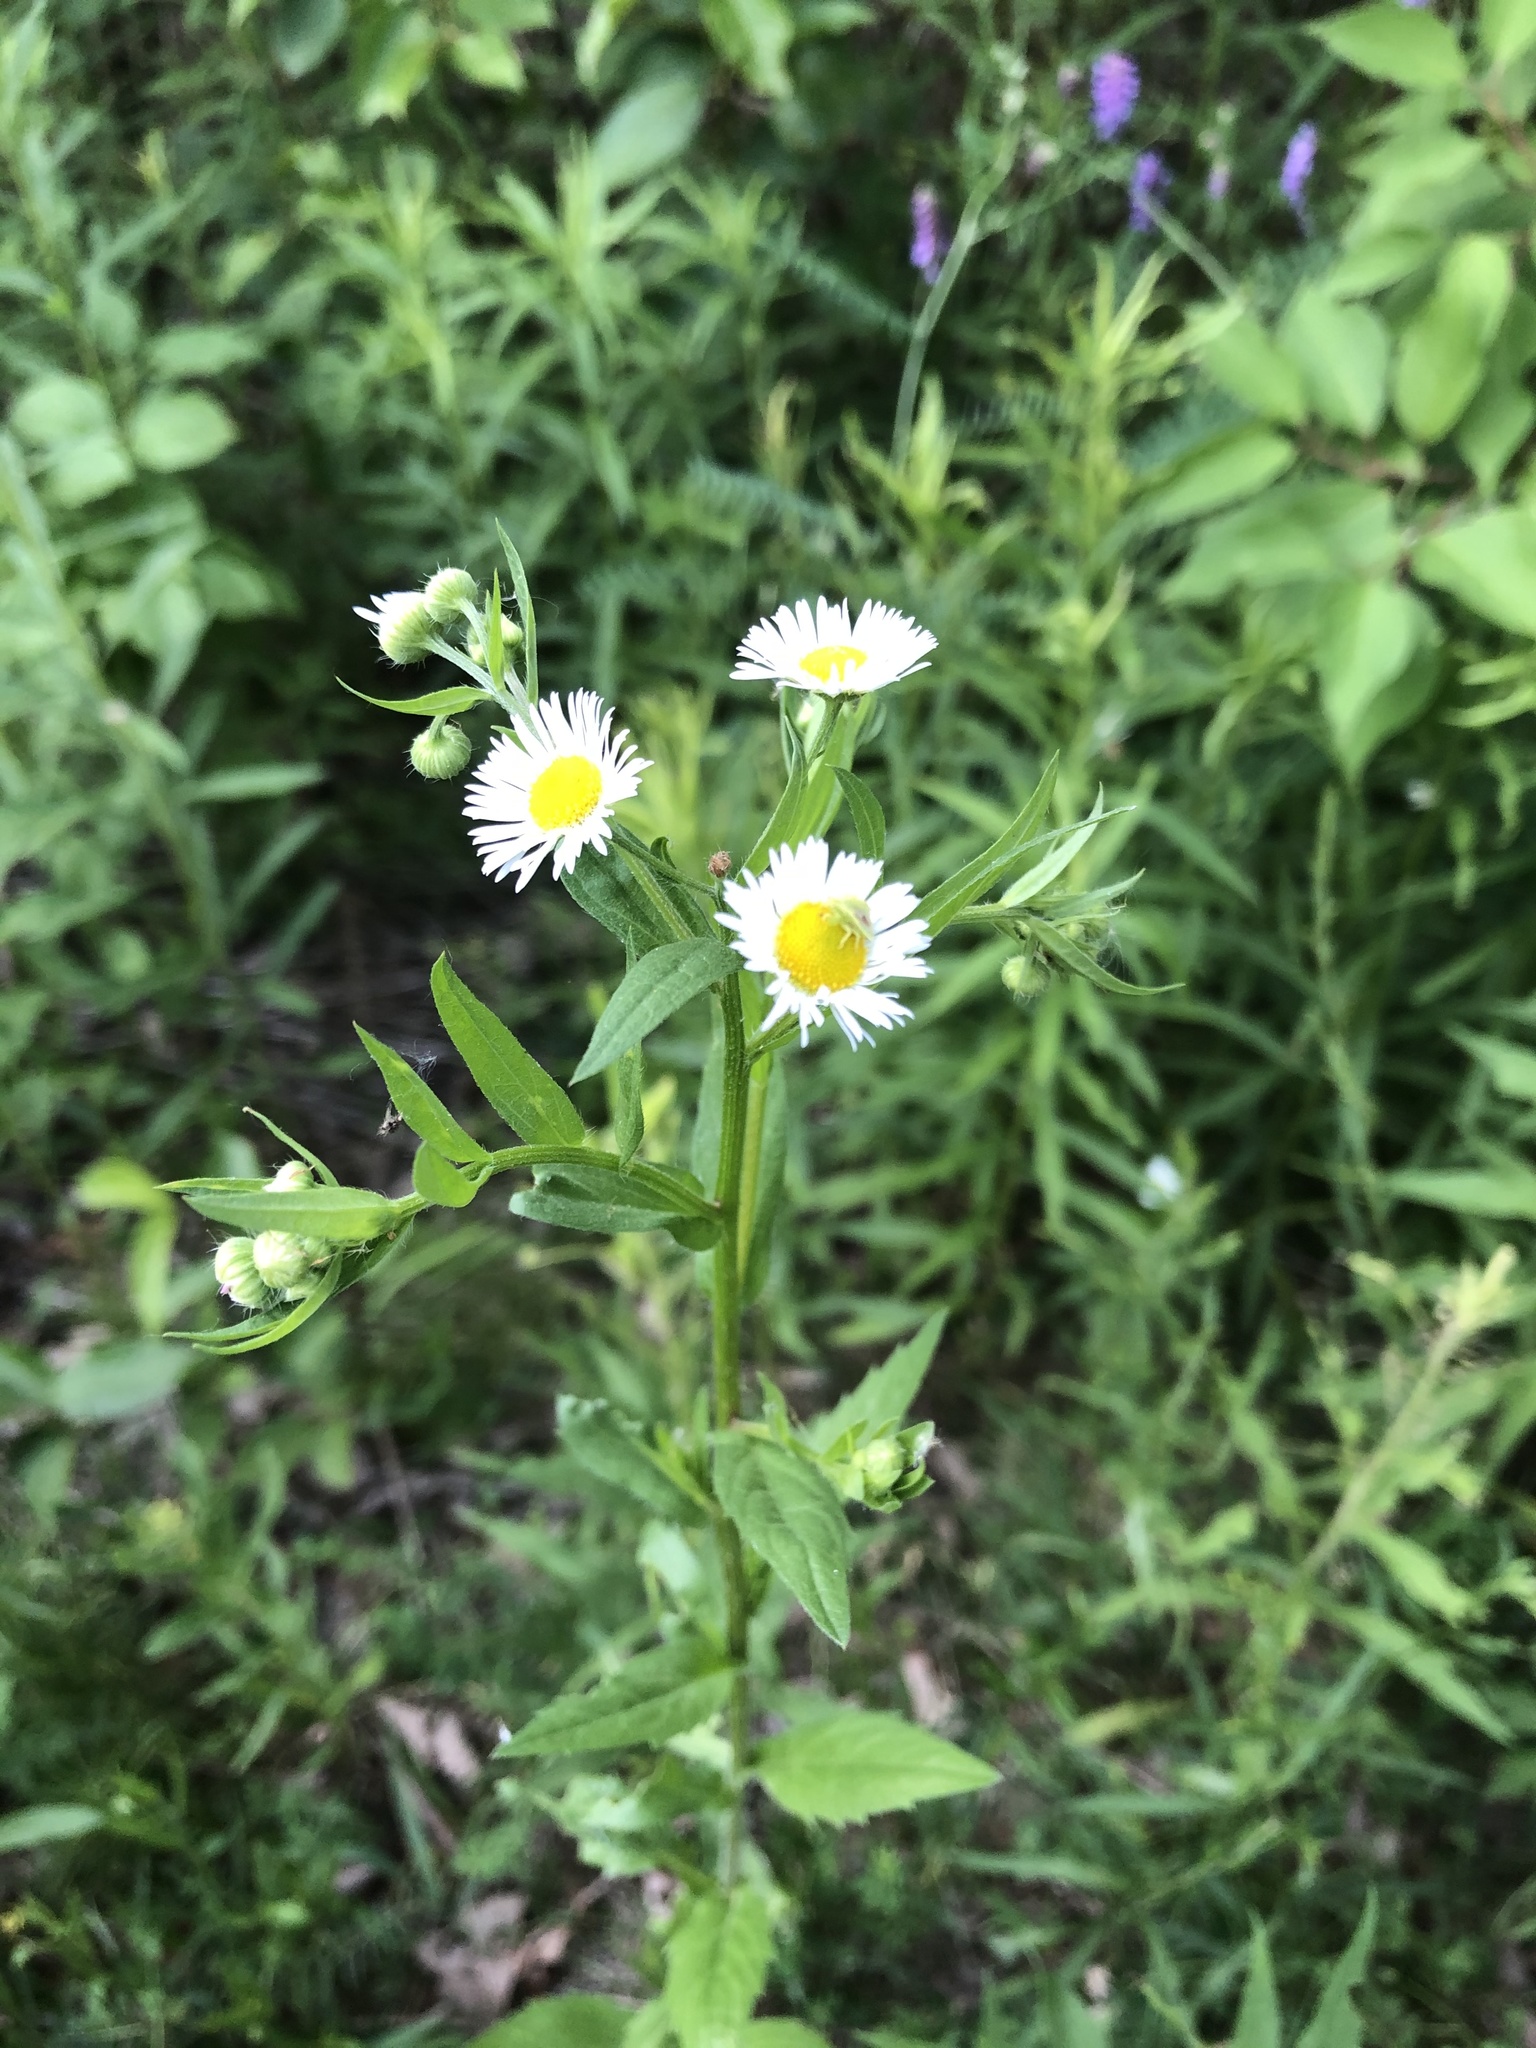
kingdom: Plantae
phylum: Tracheophyta
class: Magnoliopsida
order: Asterales
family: Asteraceae
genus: Erigeron
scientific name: Erigeron annuus
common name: Tall fleabane
